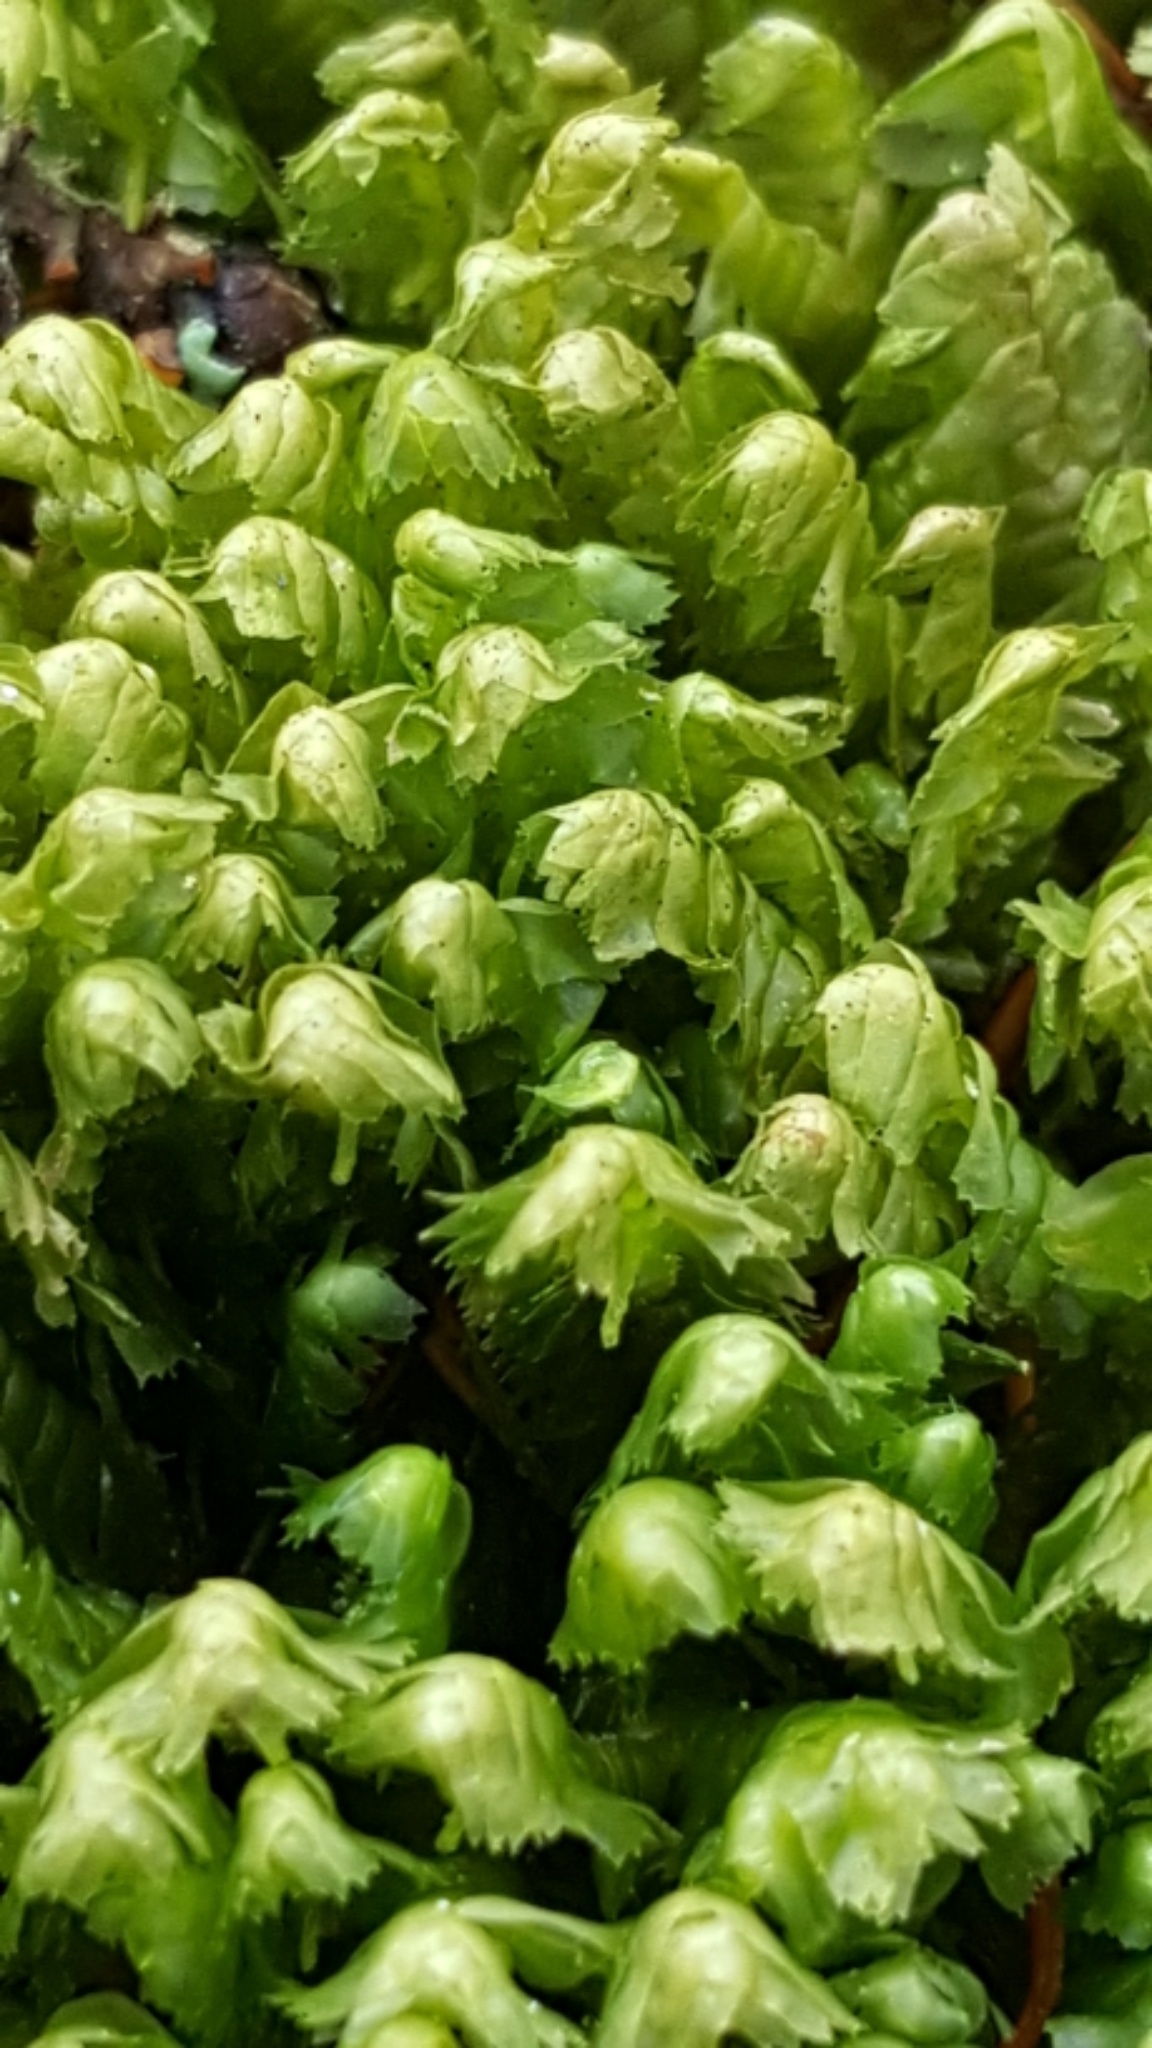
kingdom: Plantae
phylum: Marchantiophyta
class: Jungermanniopsida
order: Jungermanniales
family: Lepidoziaceae
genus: Bazzania
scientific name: Bazzania trilobata
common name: Three-lobed whipwort
